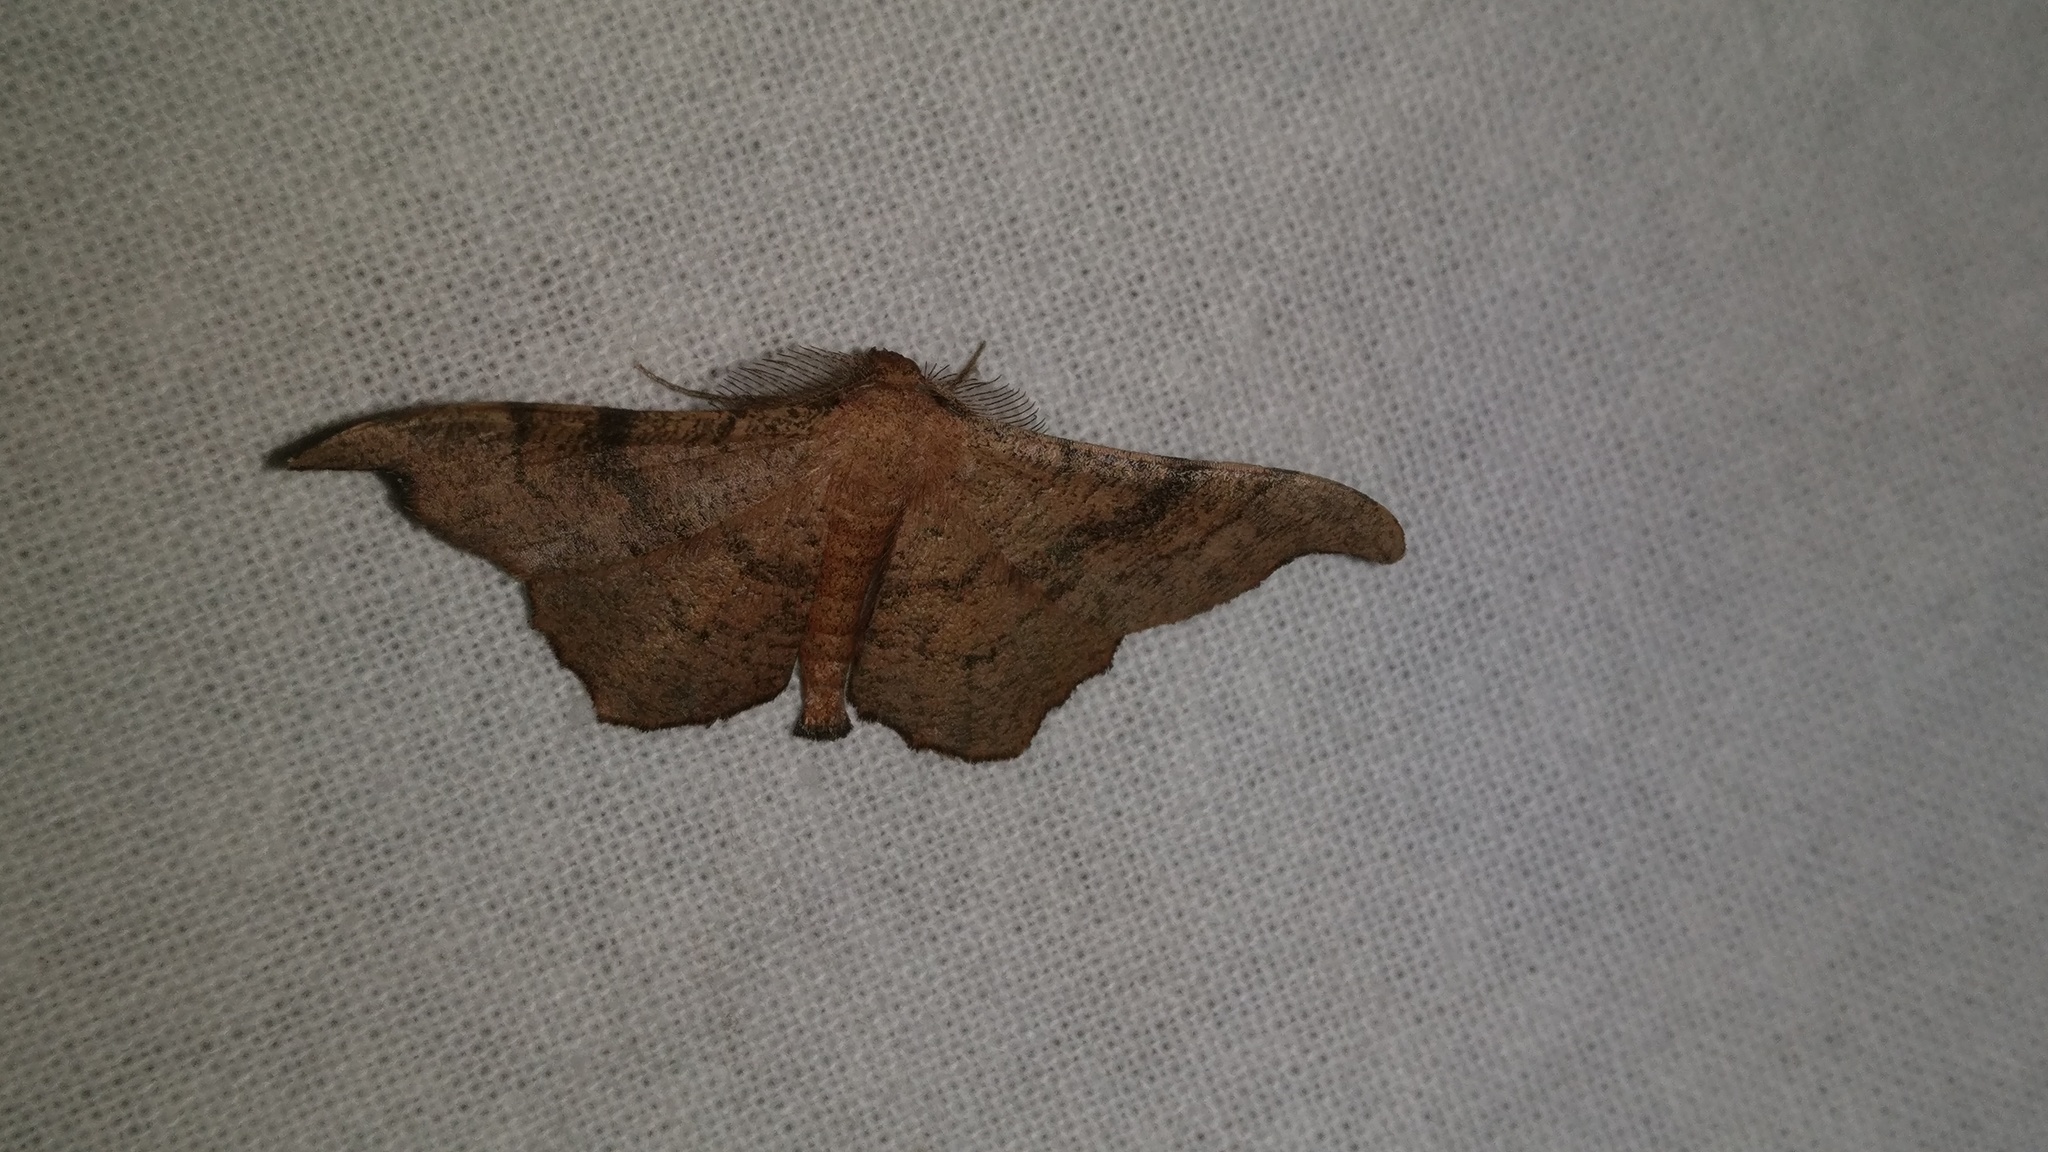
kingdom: Animalia
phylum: Arthropoda
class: Insecta
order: Lepidoptera
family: Geometridae
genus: Hyposidra
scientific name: Hyposidra talaca
